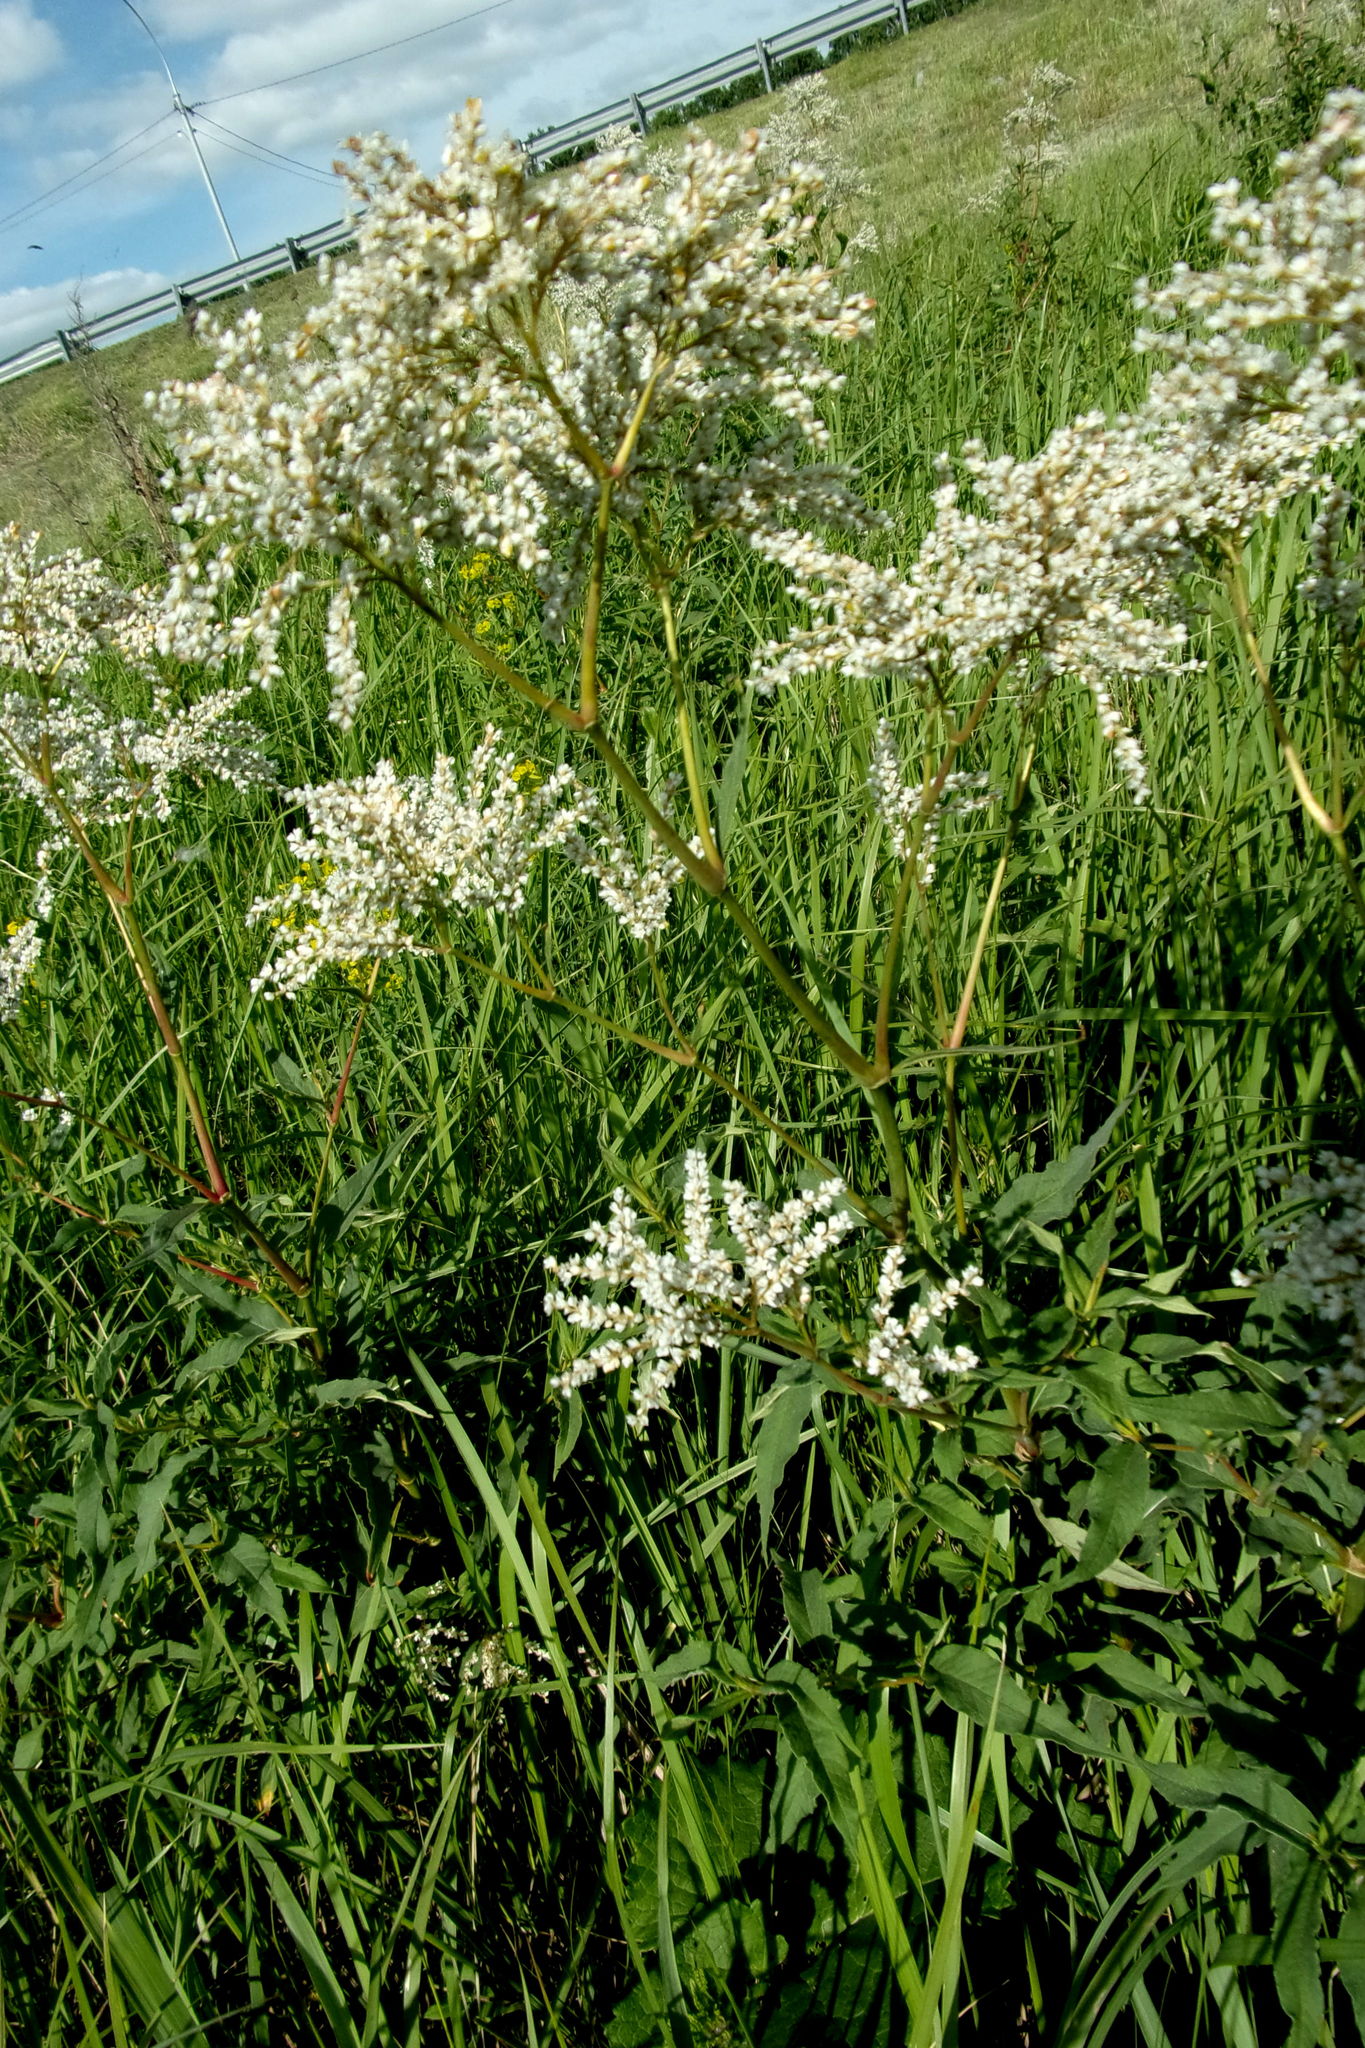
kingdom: Plantae
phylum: Tracheophyta
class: Magnoliopsida
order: Caryophyllales
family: Polygonaceae
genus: Koenigia
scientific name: Koenigia alpina
